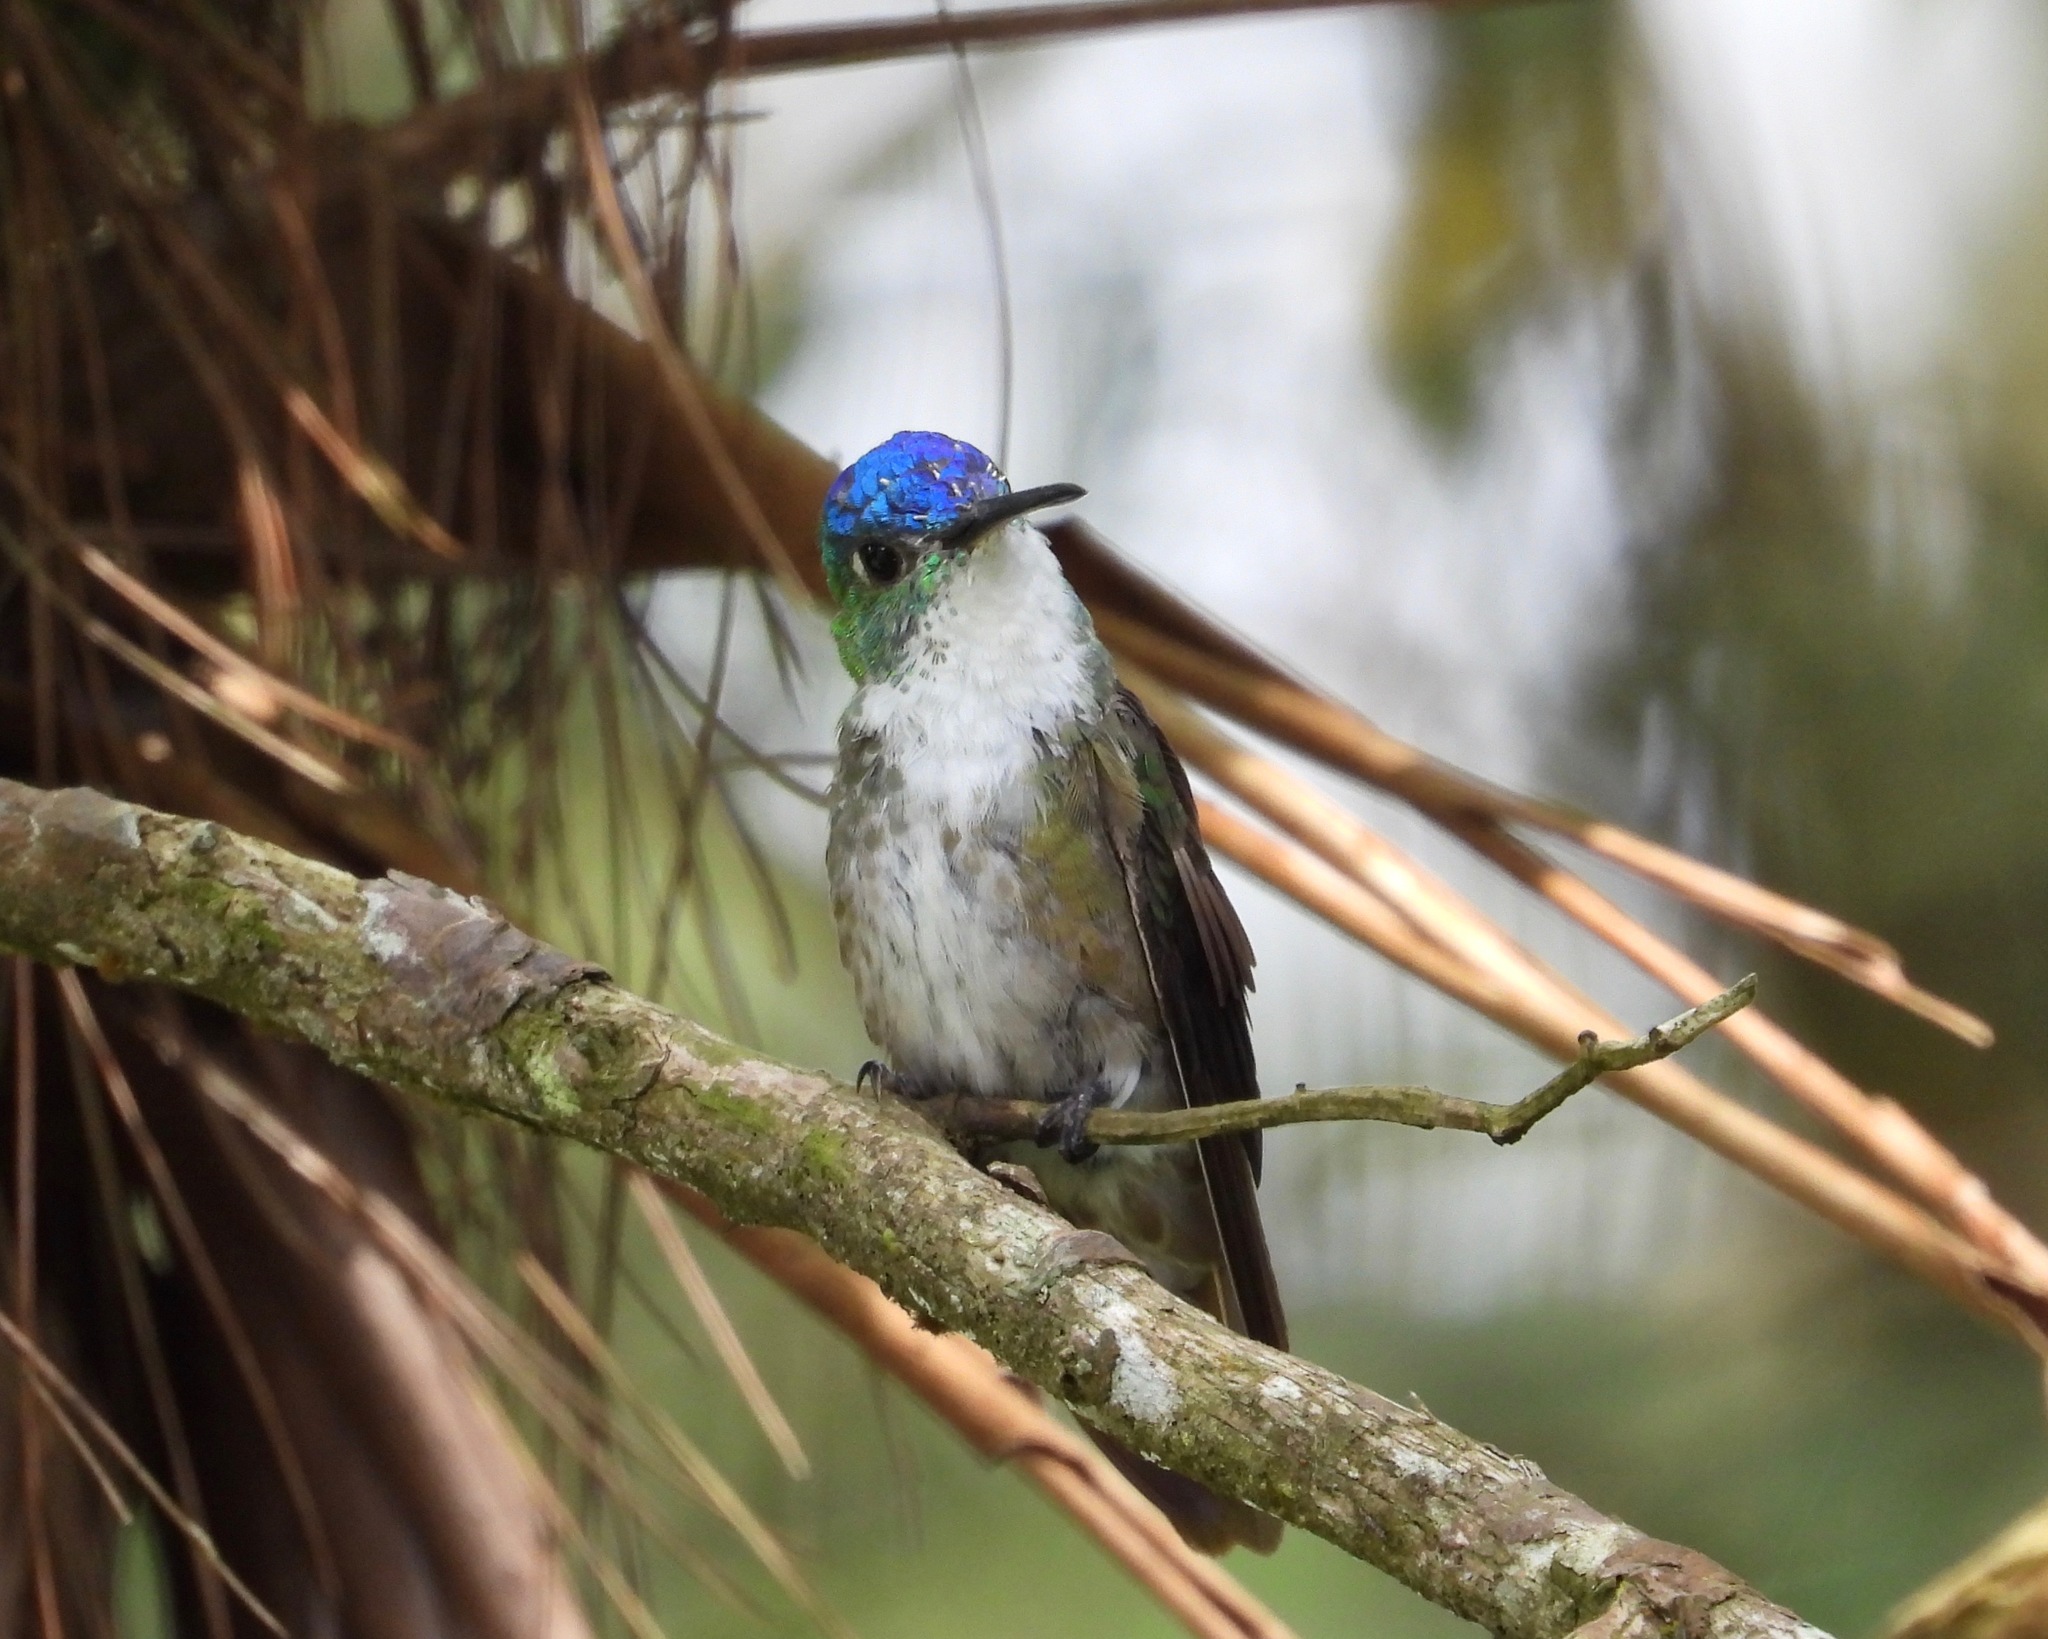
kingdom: Animalia
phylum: Chordata
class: Aves
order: Apodiformes
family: Trochilidae
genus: Saucerottia
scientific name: Saucerottia cyanocephala
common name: Azure-crowned hummingbird
